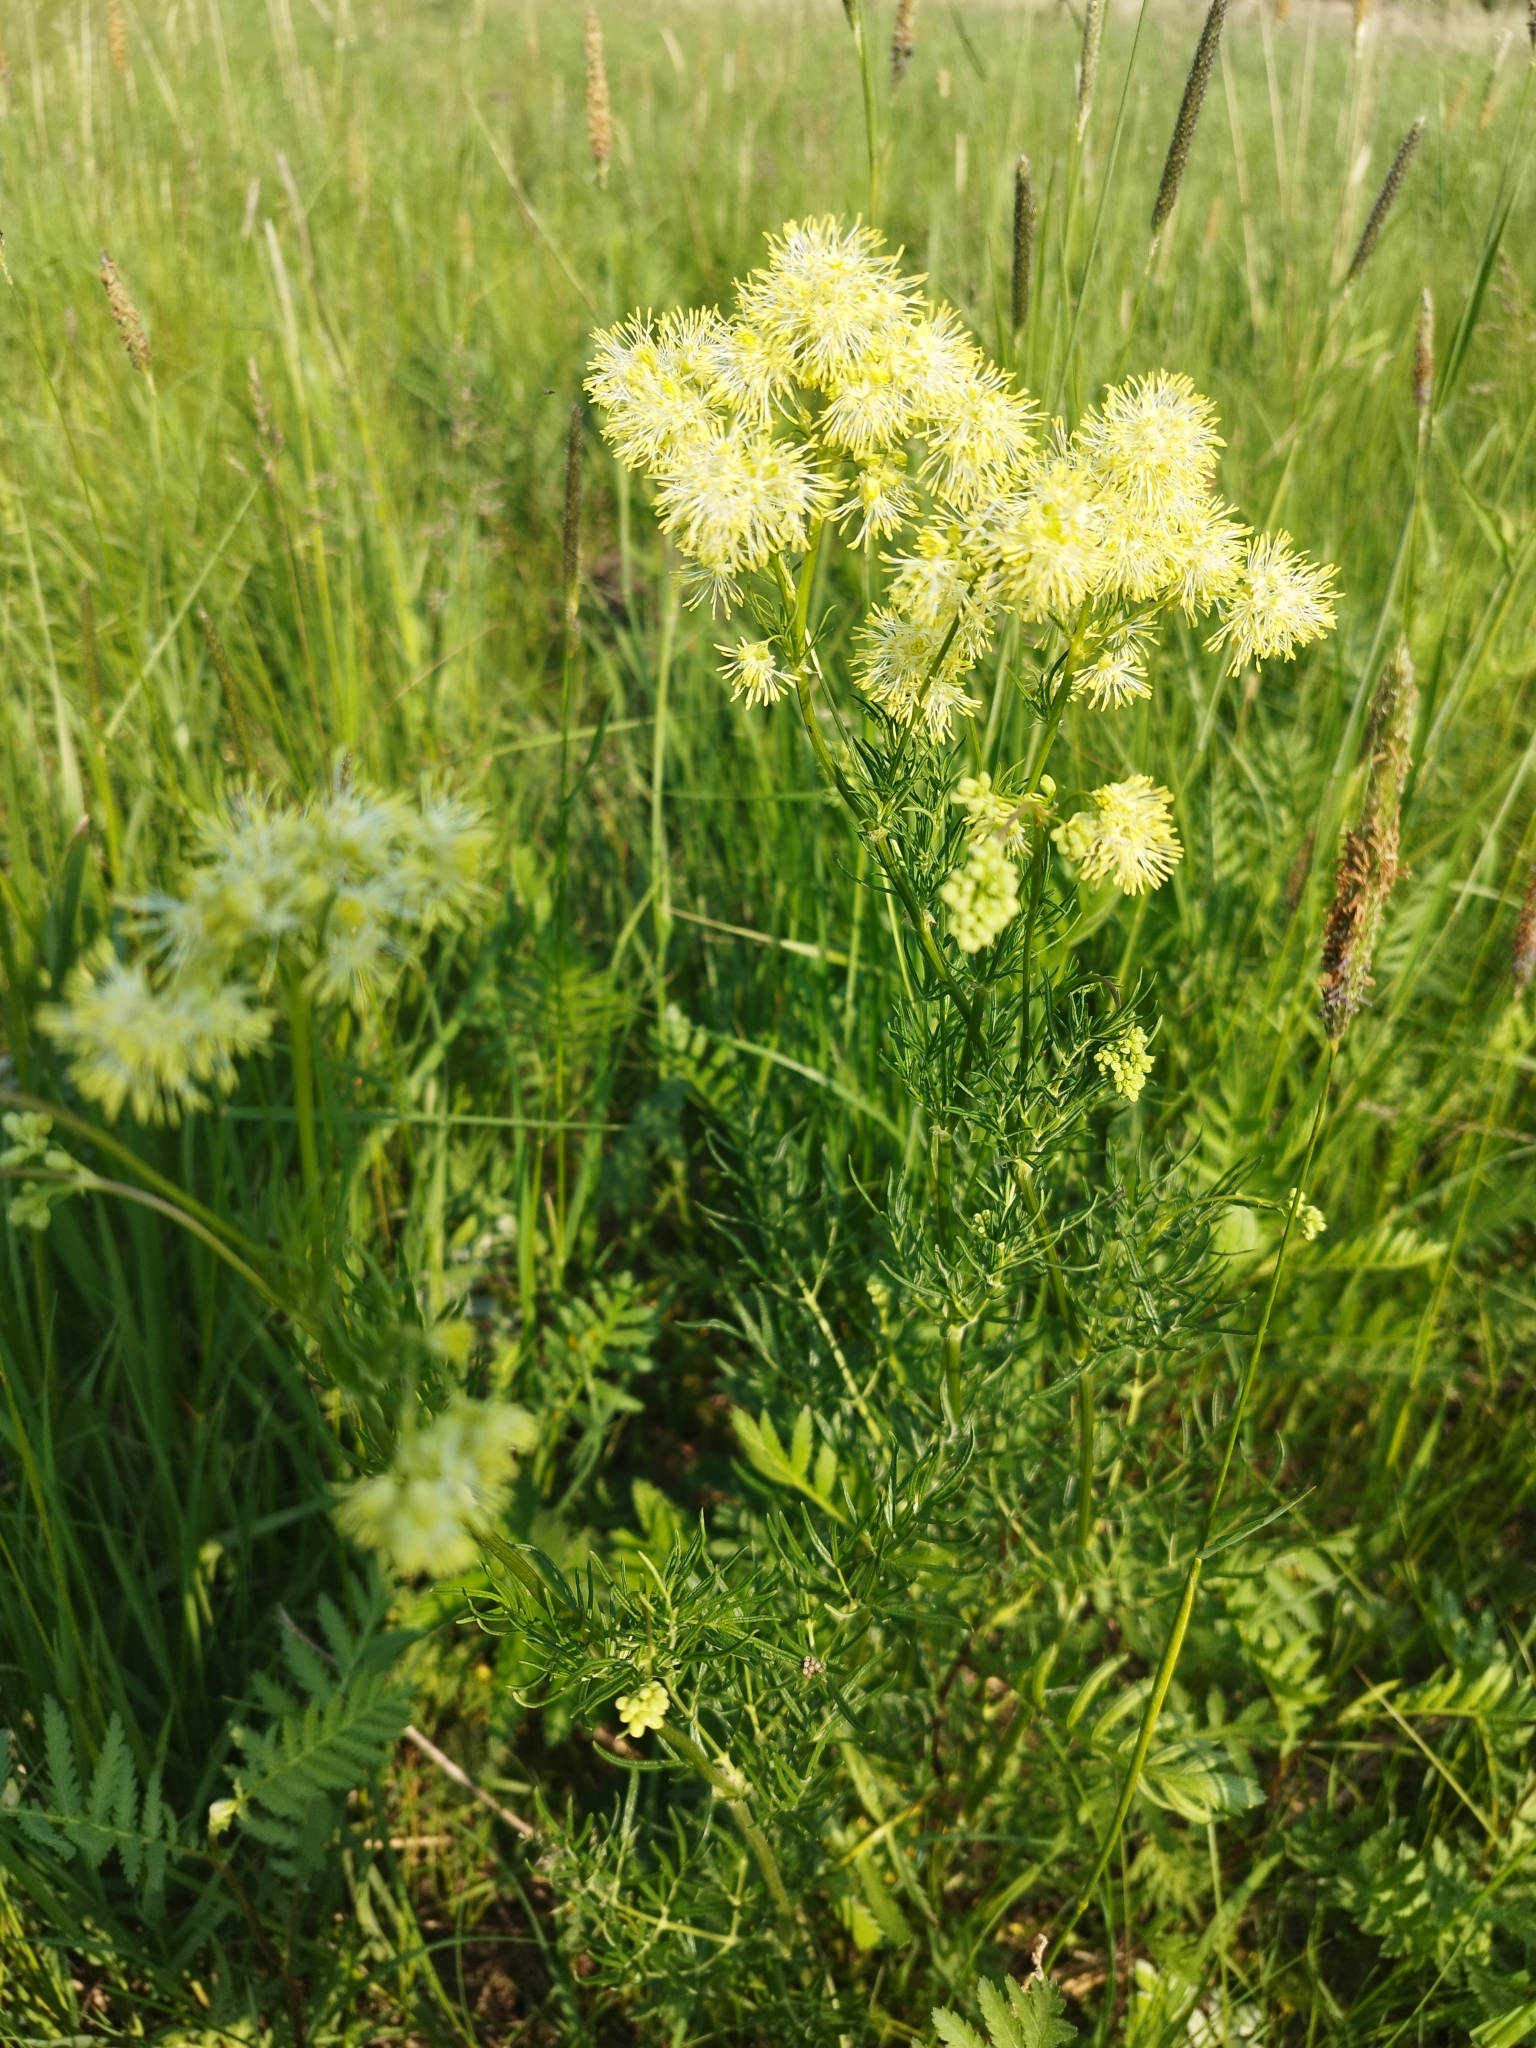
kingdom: Plantae
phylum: Tracheophyta
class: Magnoliopsida
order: Ranunculales
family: Ranunculaceae
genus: Thalictrum
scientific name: Thalictrum lucidum
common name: Shining meadow-rue
